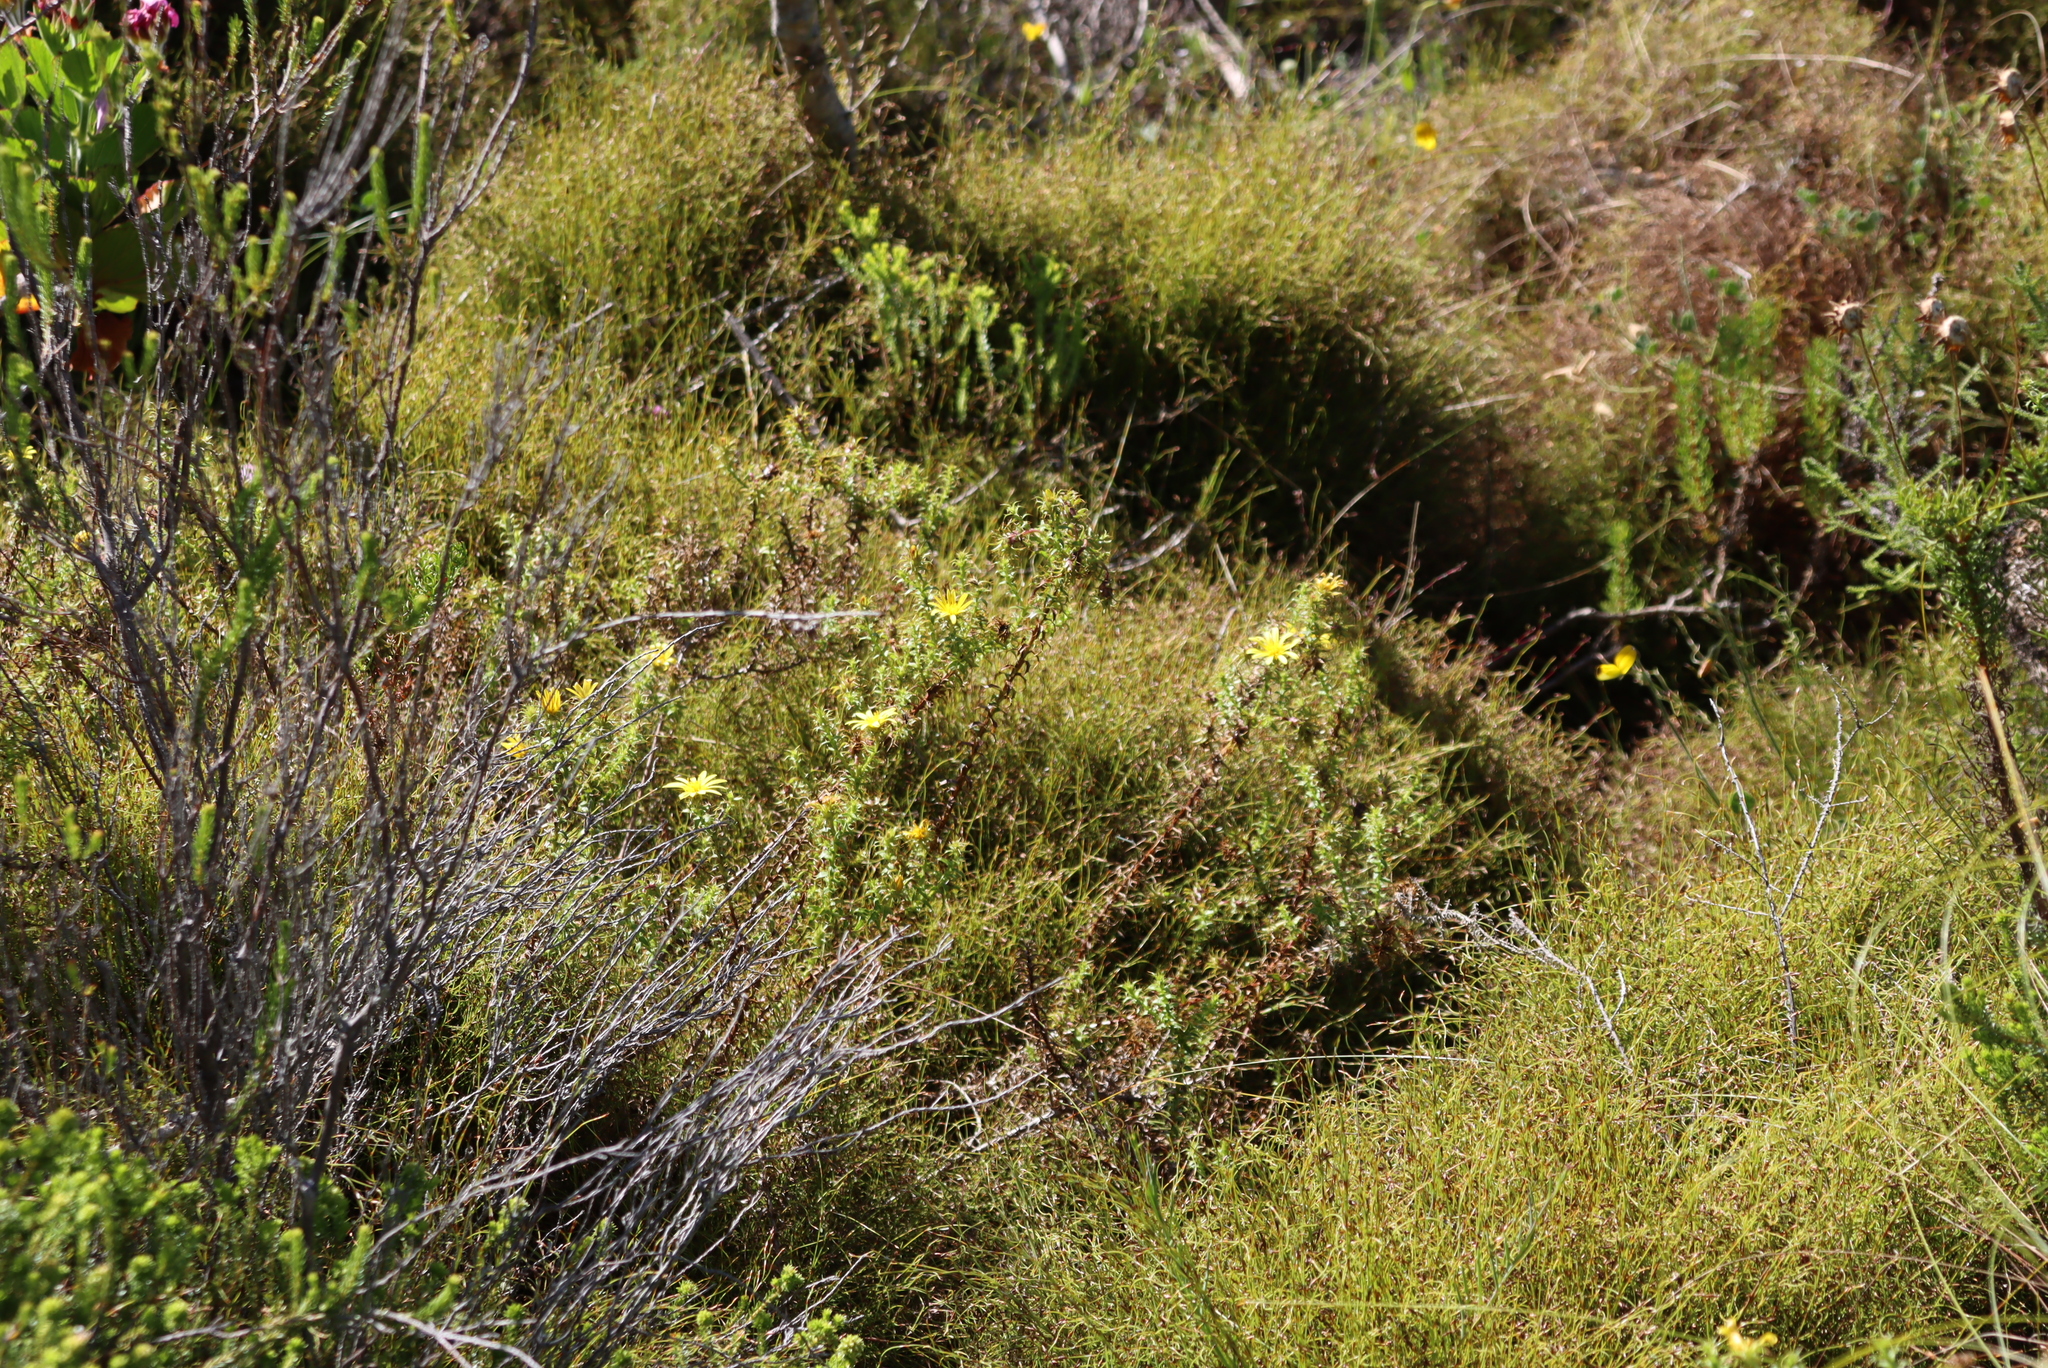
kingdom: Plantae
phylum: Tracheophyta
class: Magnoliopsida
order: Asterales
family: Asteraceae
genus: Cullumia
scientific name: Cullumia setosa
